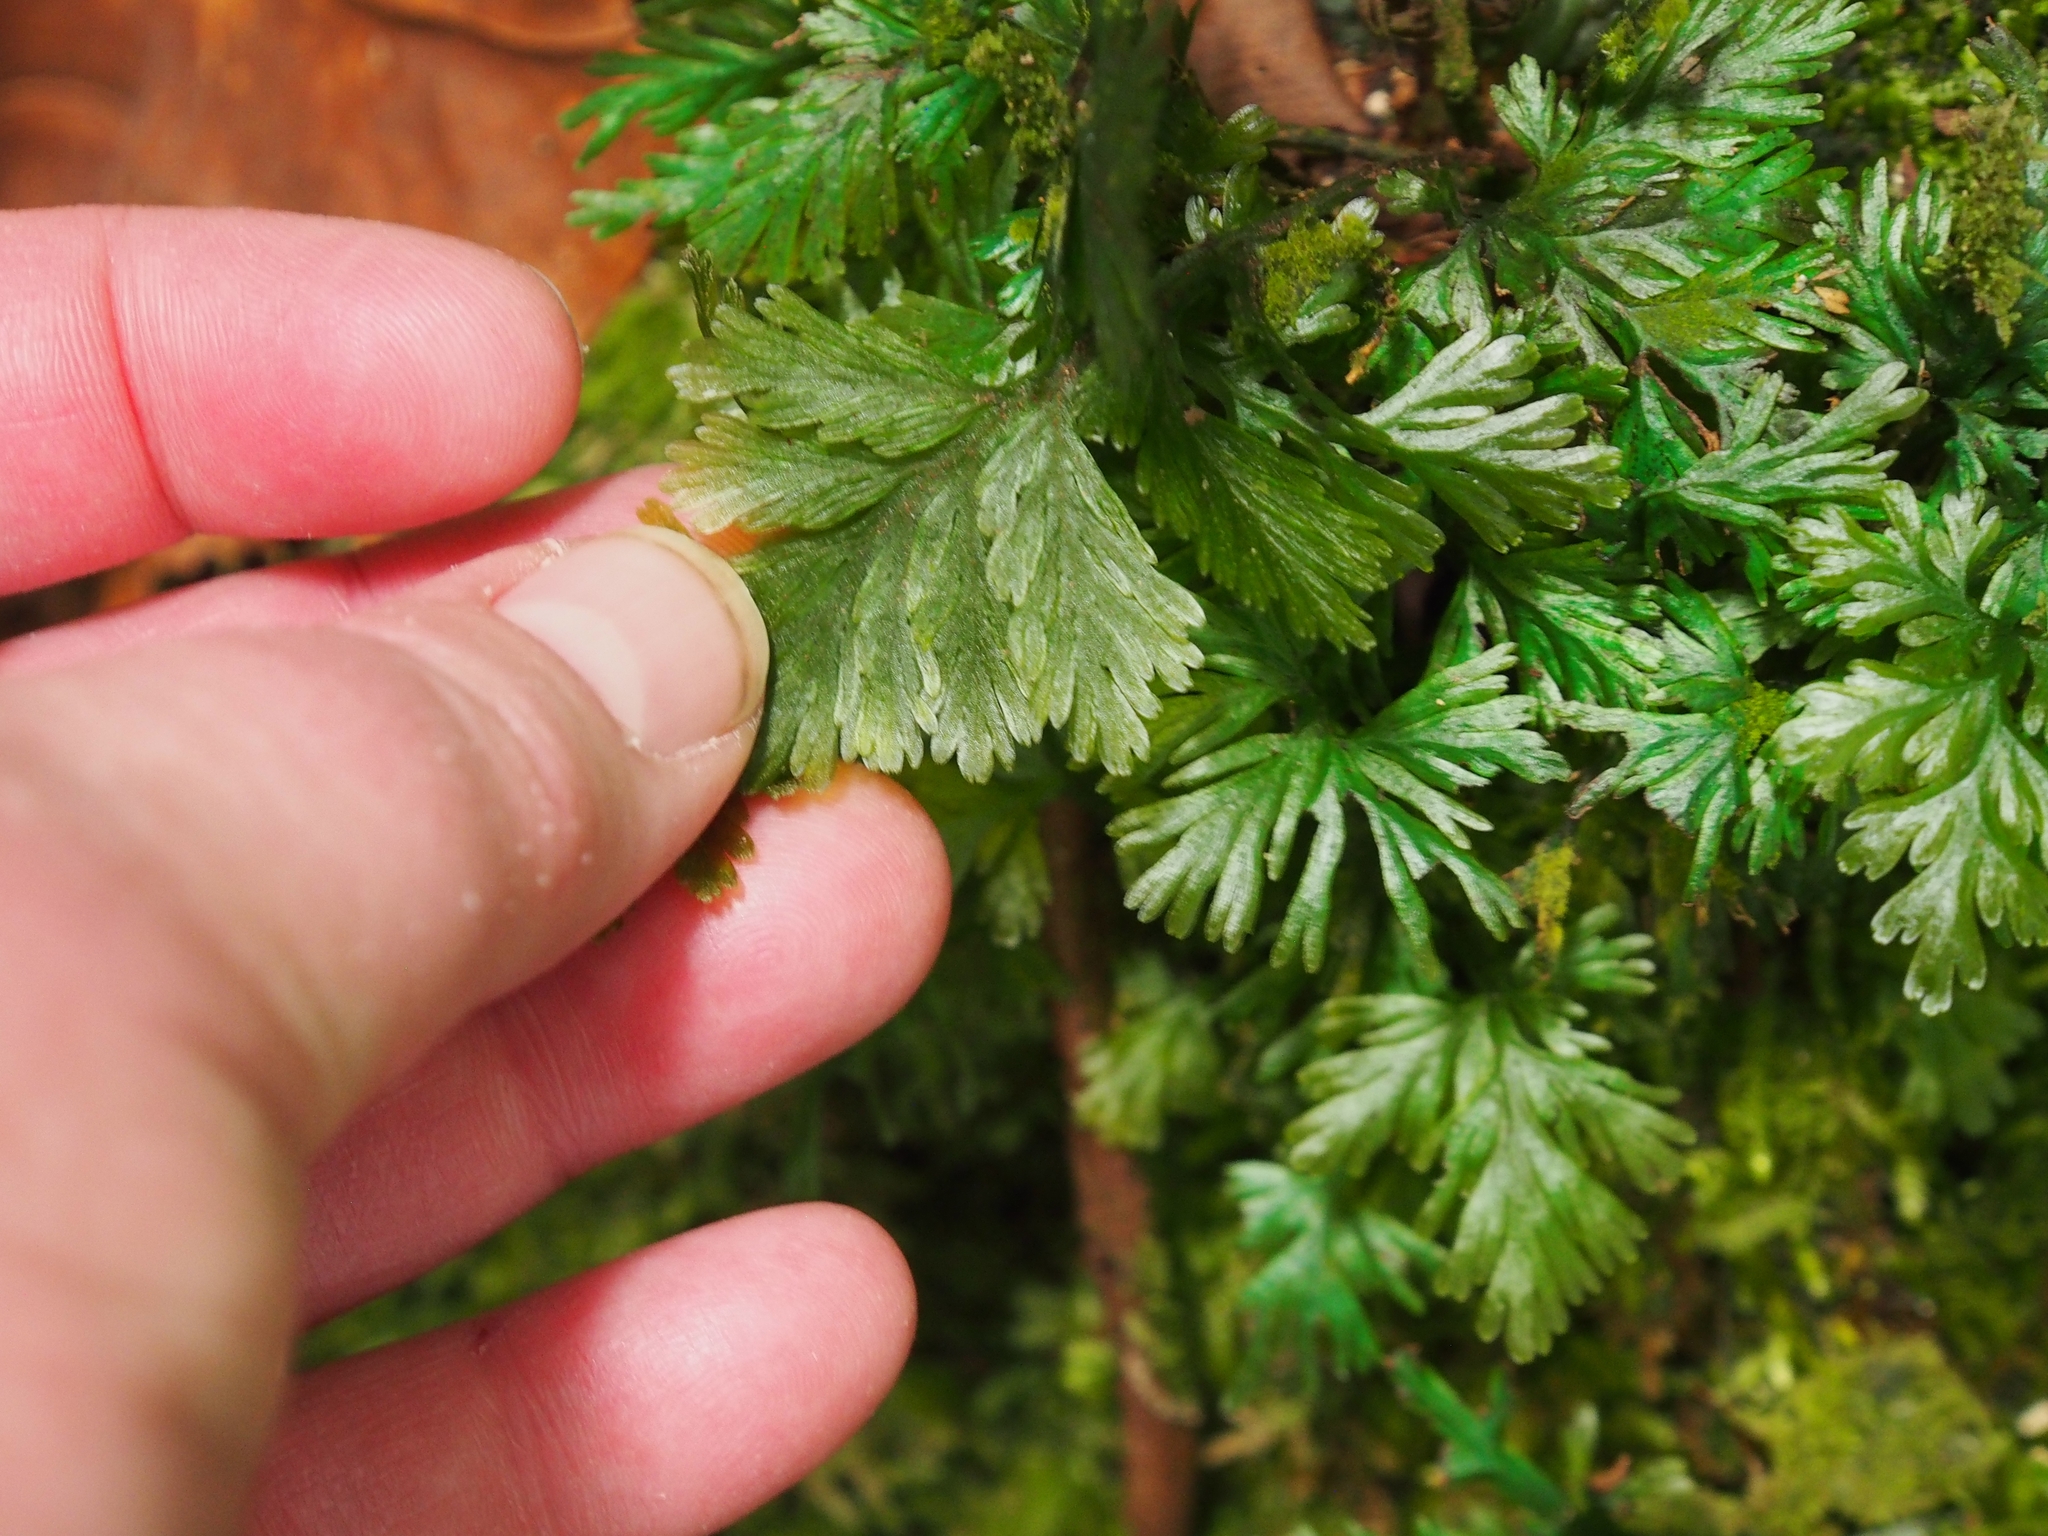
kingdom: Plantae
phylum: Tracheophyta
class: Polypodiopsida
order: Hymenophyllales
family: Hymenophyllaceae
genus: Trichomanes
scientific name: Trichomanes elegans
